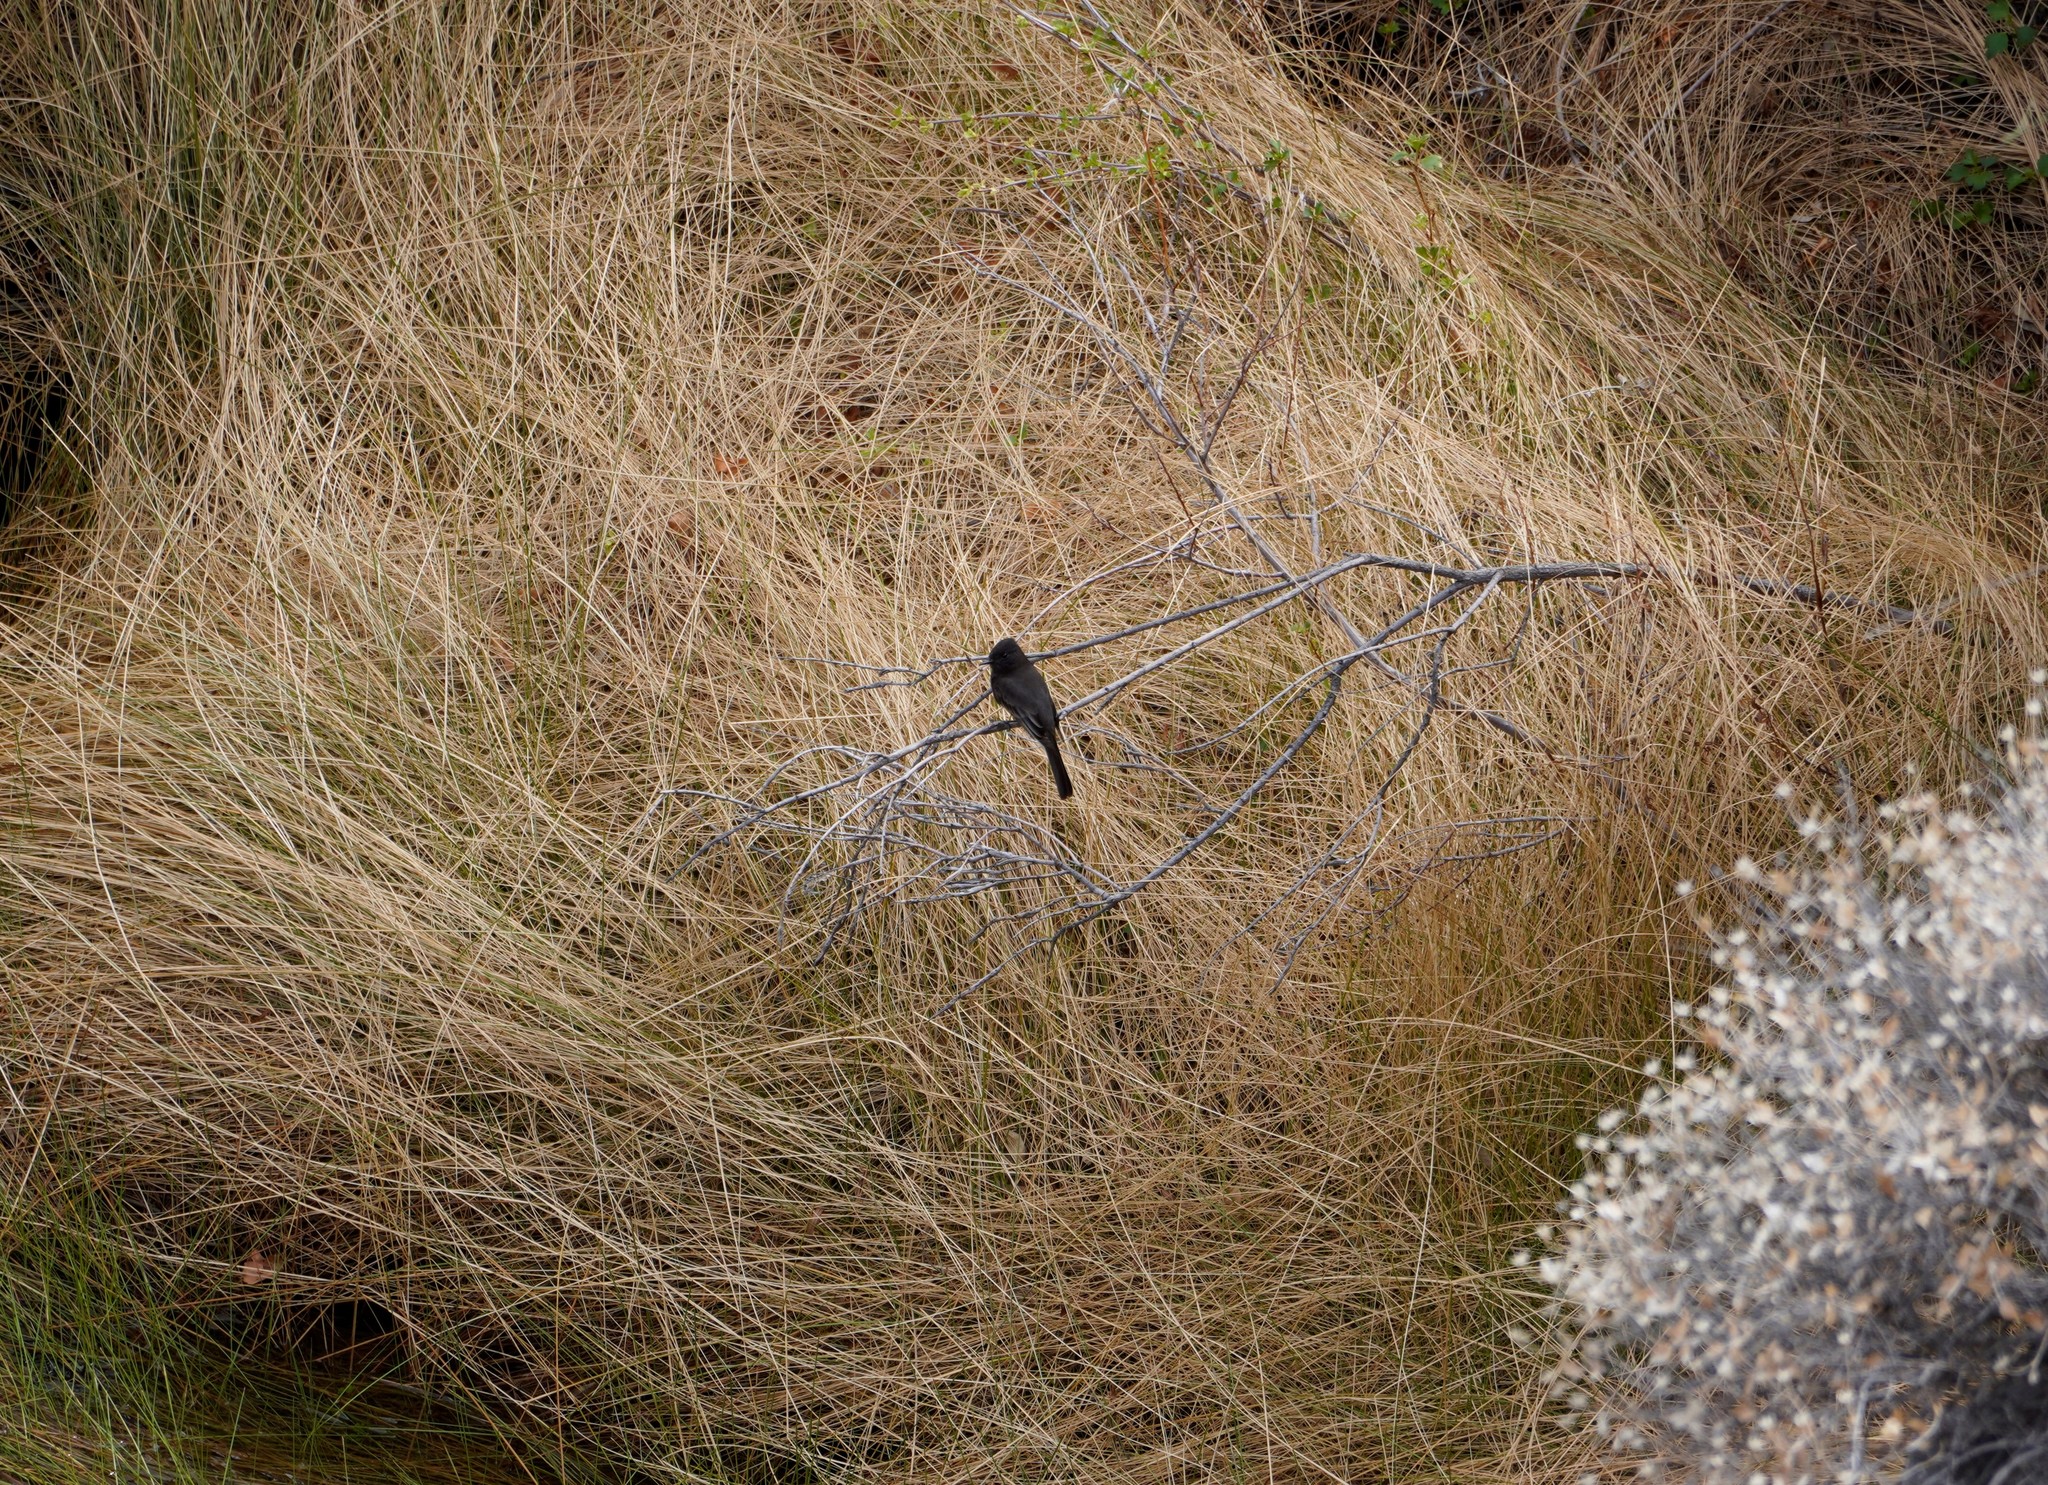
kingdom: Animalia
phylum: Chordata
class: Aves
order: Passeriformes
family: Tyrannidae
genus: Sayornis
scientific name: Sayornis nigricans
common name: Black phoebe
